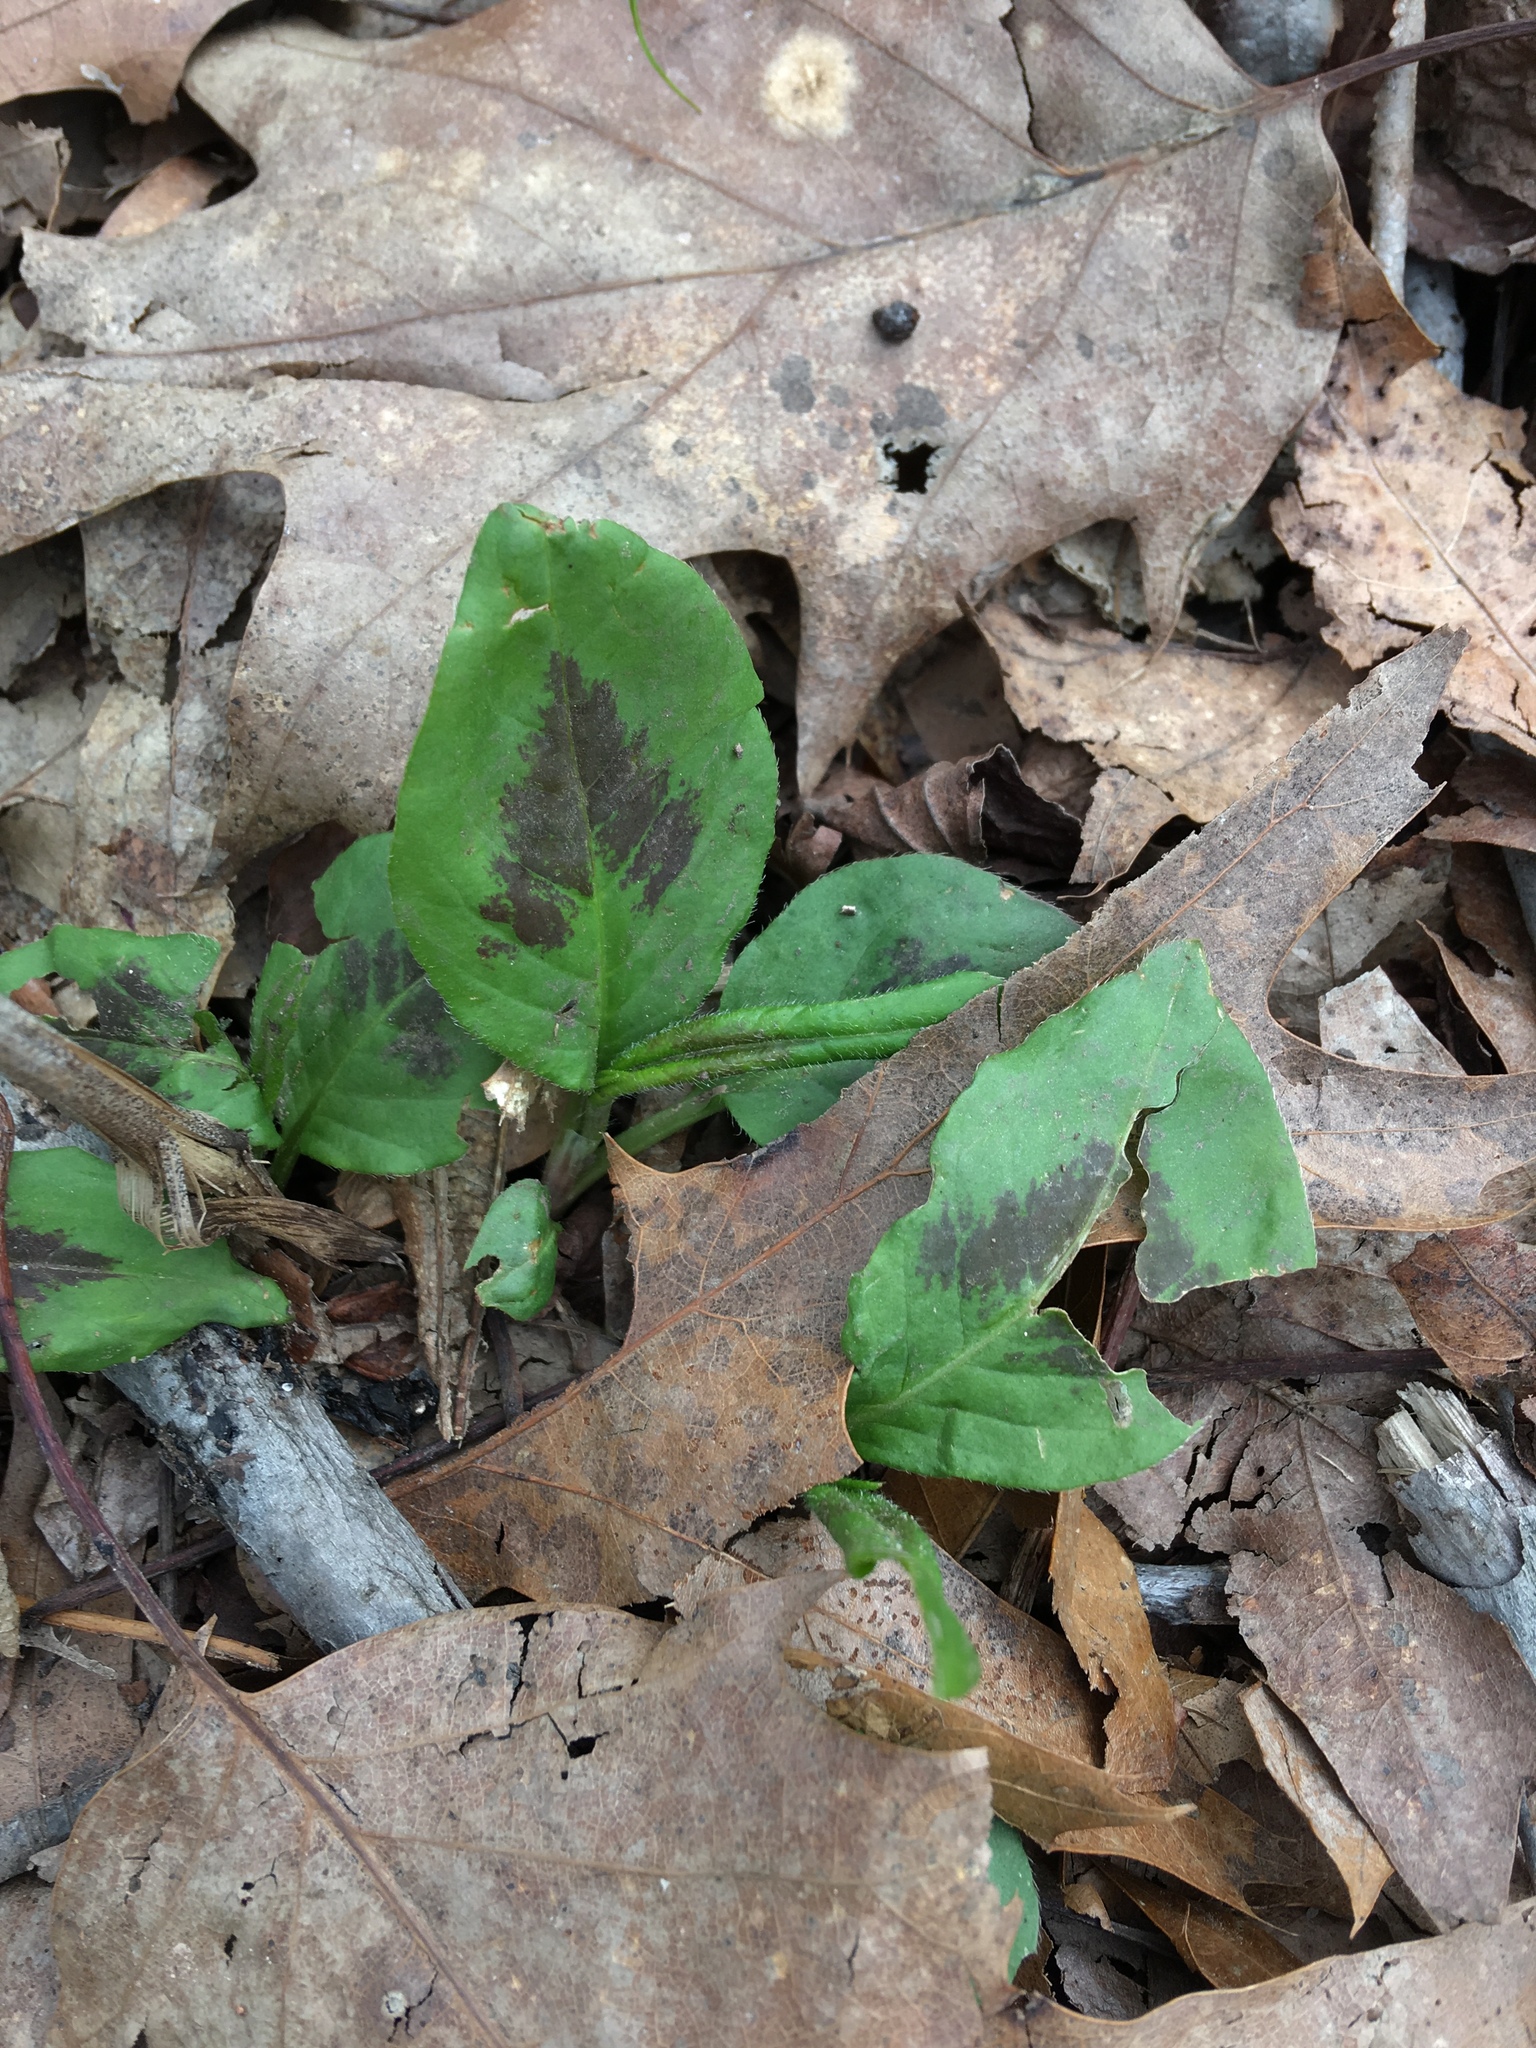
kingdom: Plantae
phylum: Tracheophyta
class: Magnoliopsida
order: Caryophyllales
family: Polygonaceae
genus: Persicaria
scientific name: Persicaria virginiana
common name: Jumpseed
